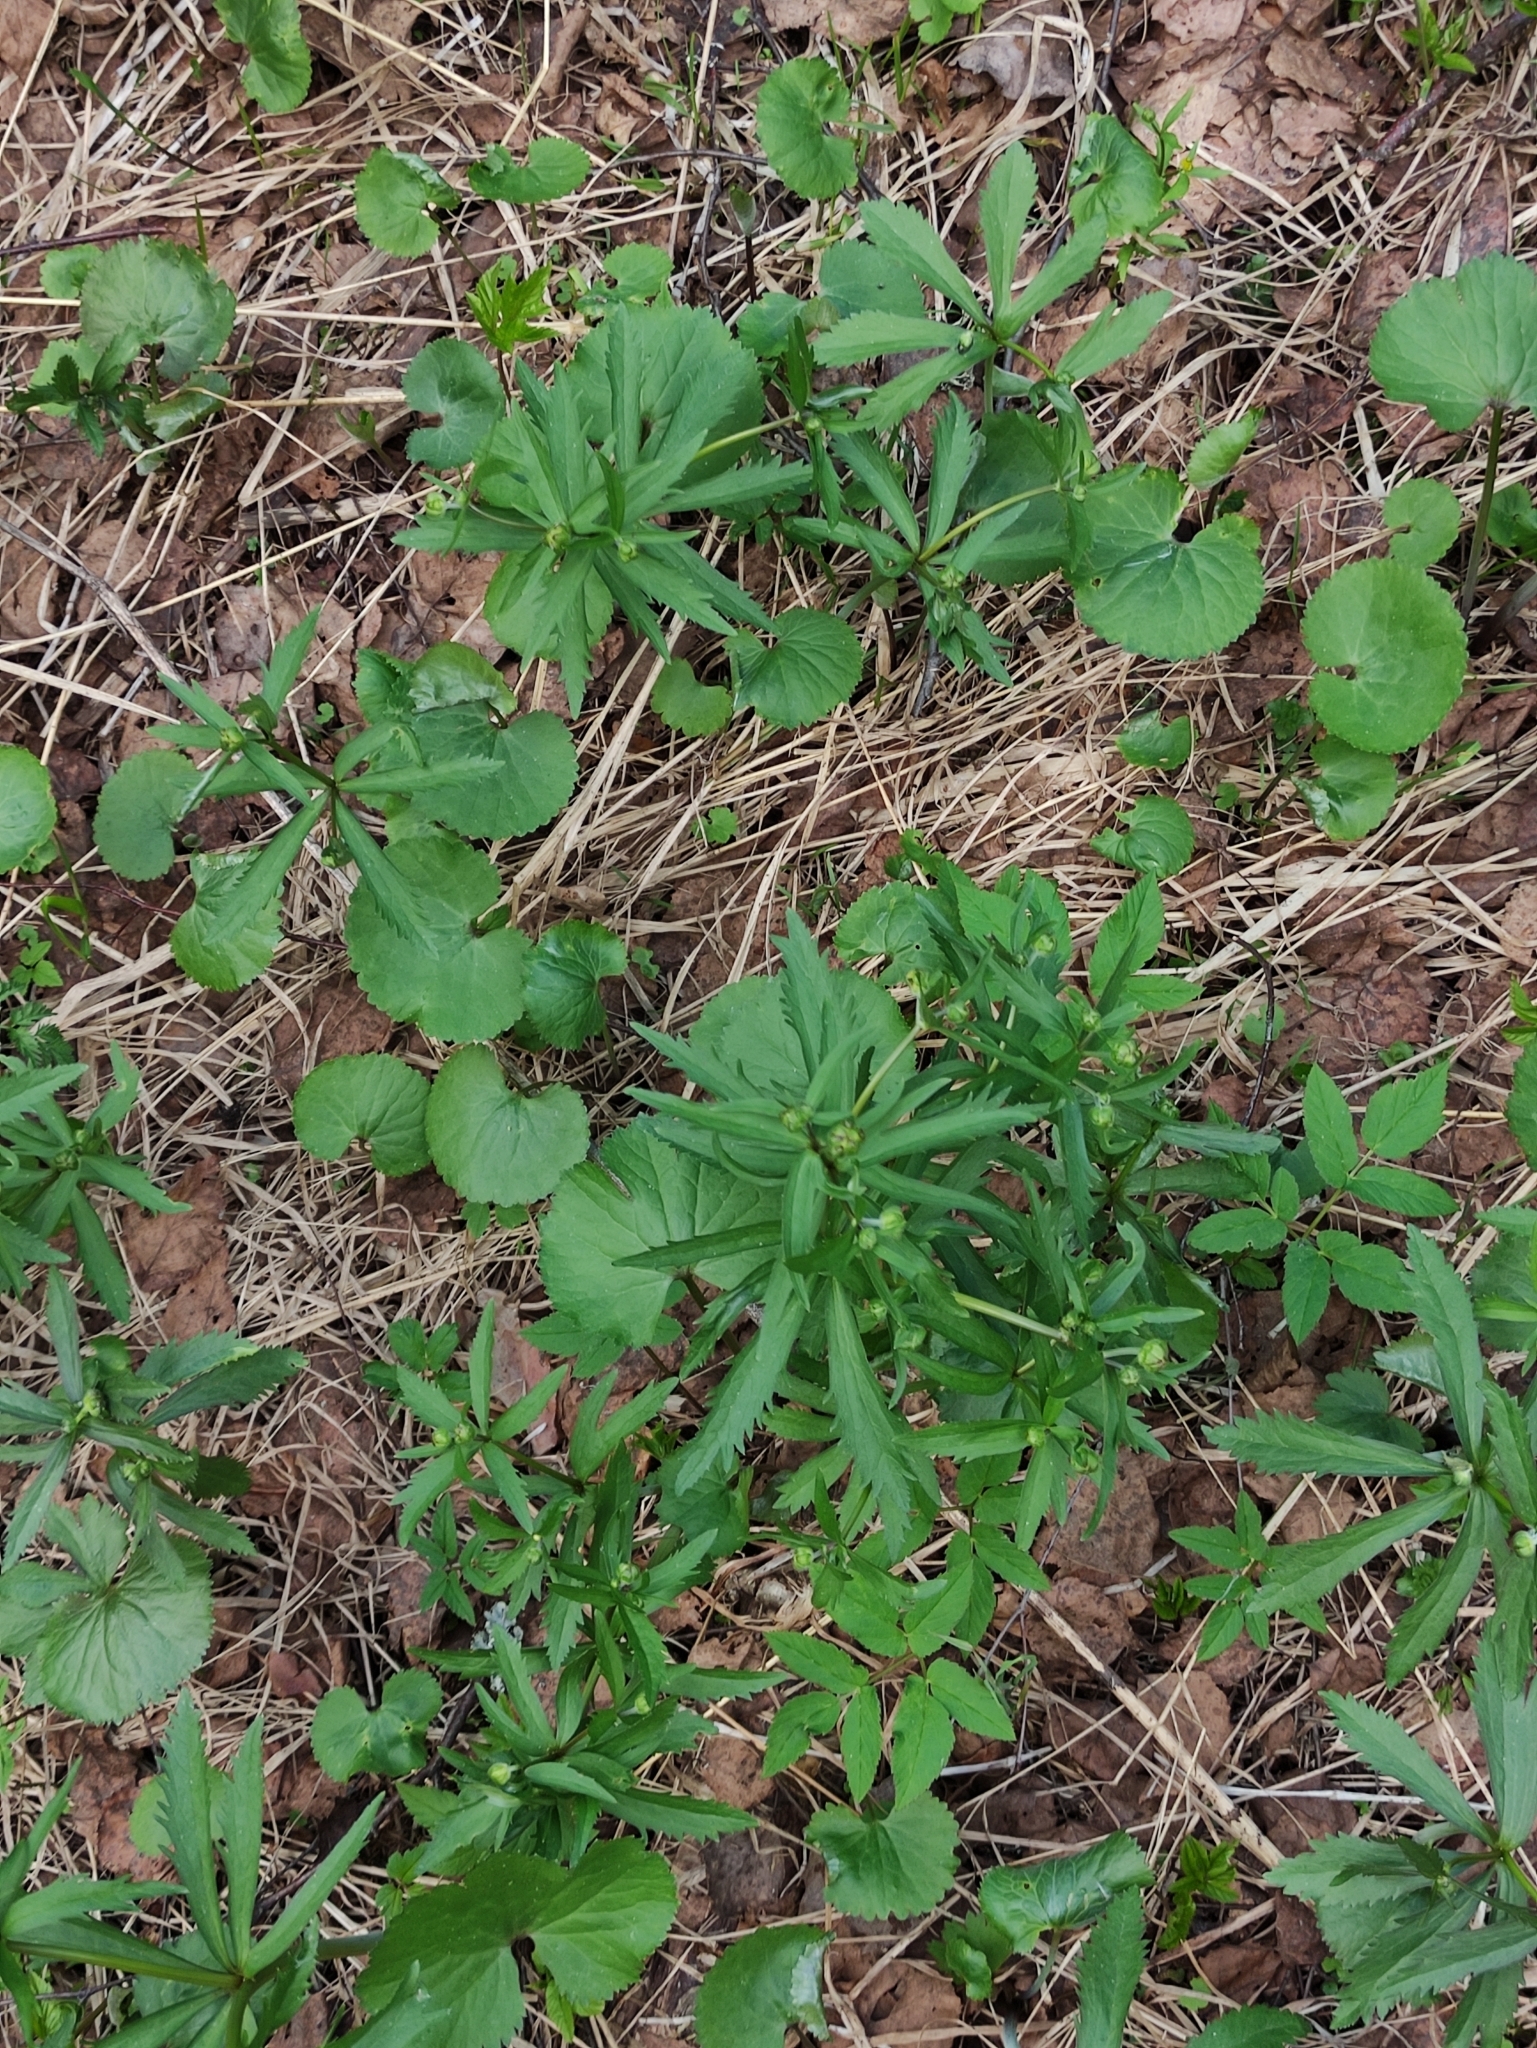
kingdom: Plantae
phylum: Tracheophyta
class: Magnoliopsida
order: Ranunculales
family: Ranunculaceae
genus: Ranunculus
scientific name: Ranunculus cassubicus
